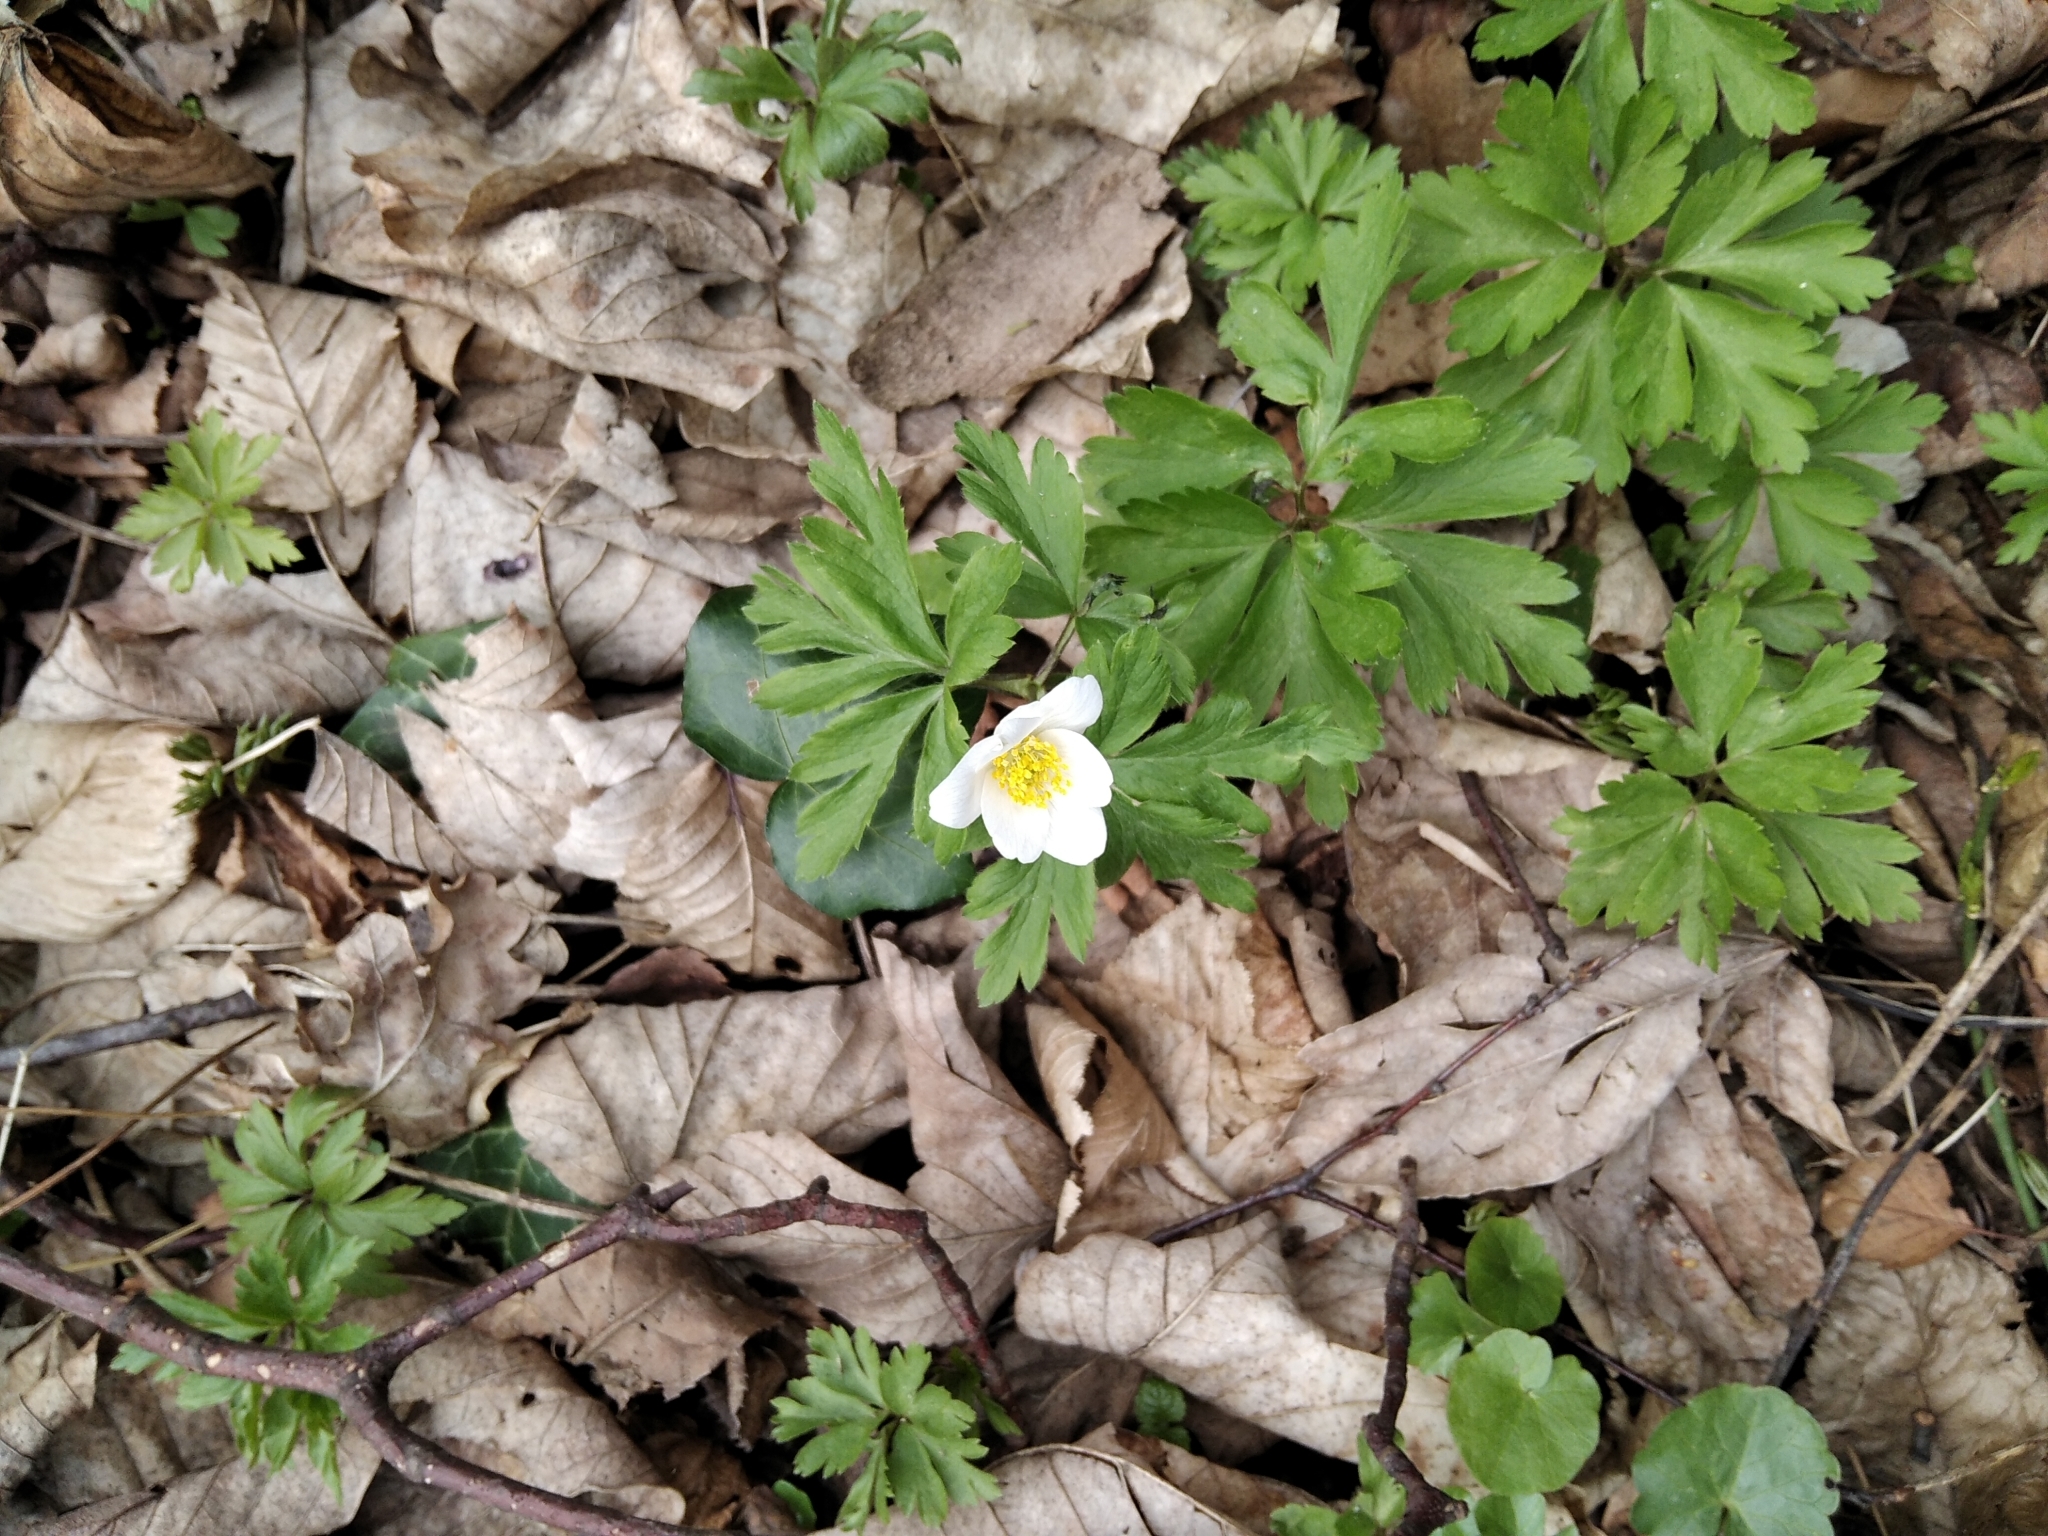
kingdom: Plantae
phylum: Tracheophyta
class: Magnoliopsida
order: Ranunculales
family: Ranunculaceae
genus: Anemone
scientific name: Anemone nemorosa
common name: Wood anemone
